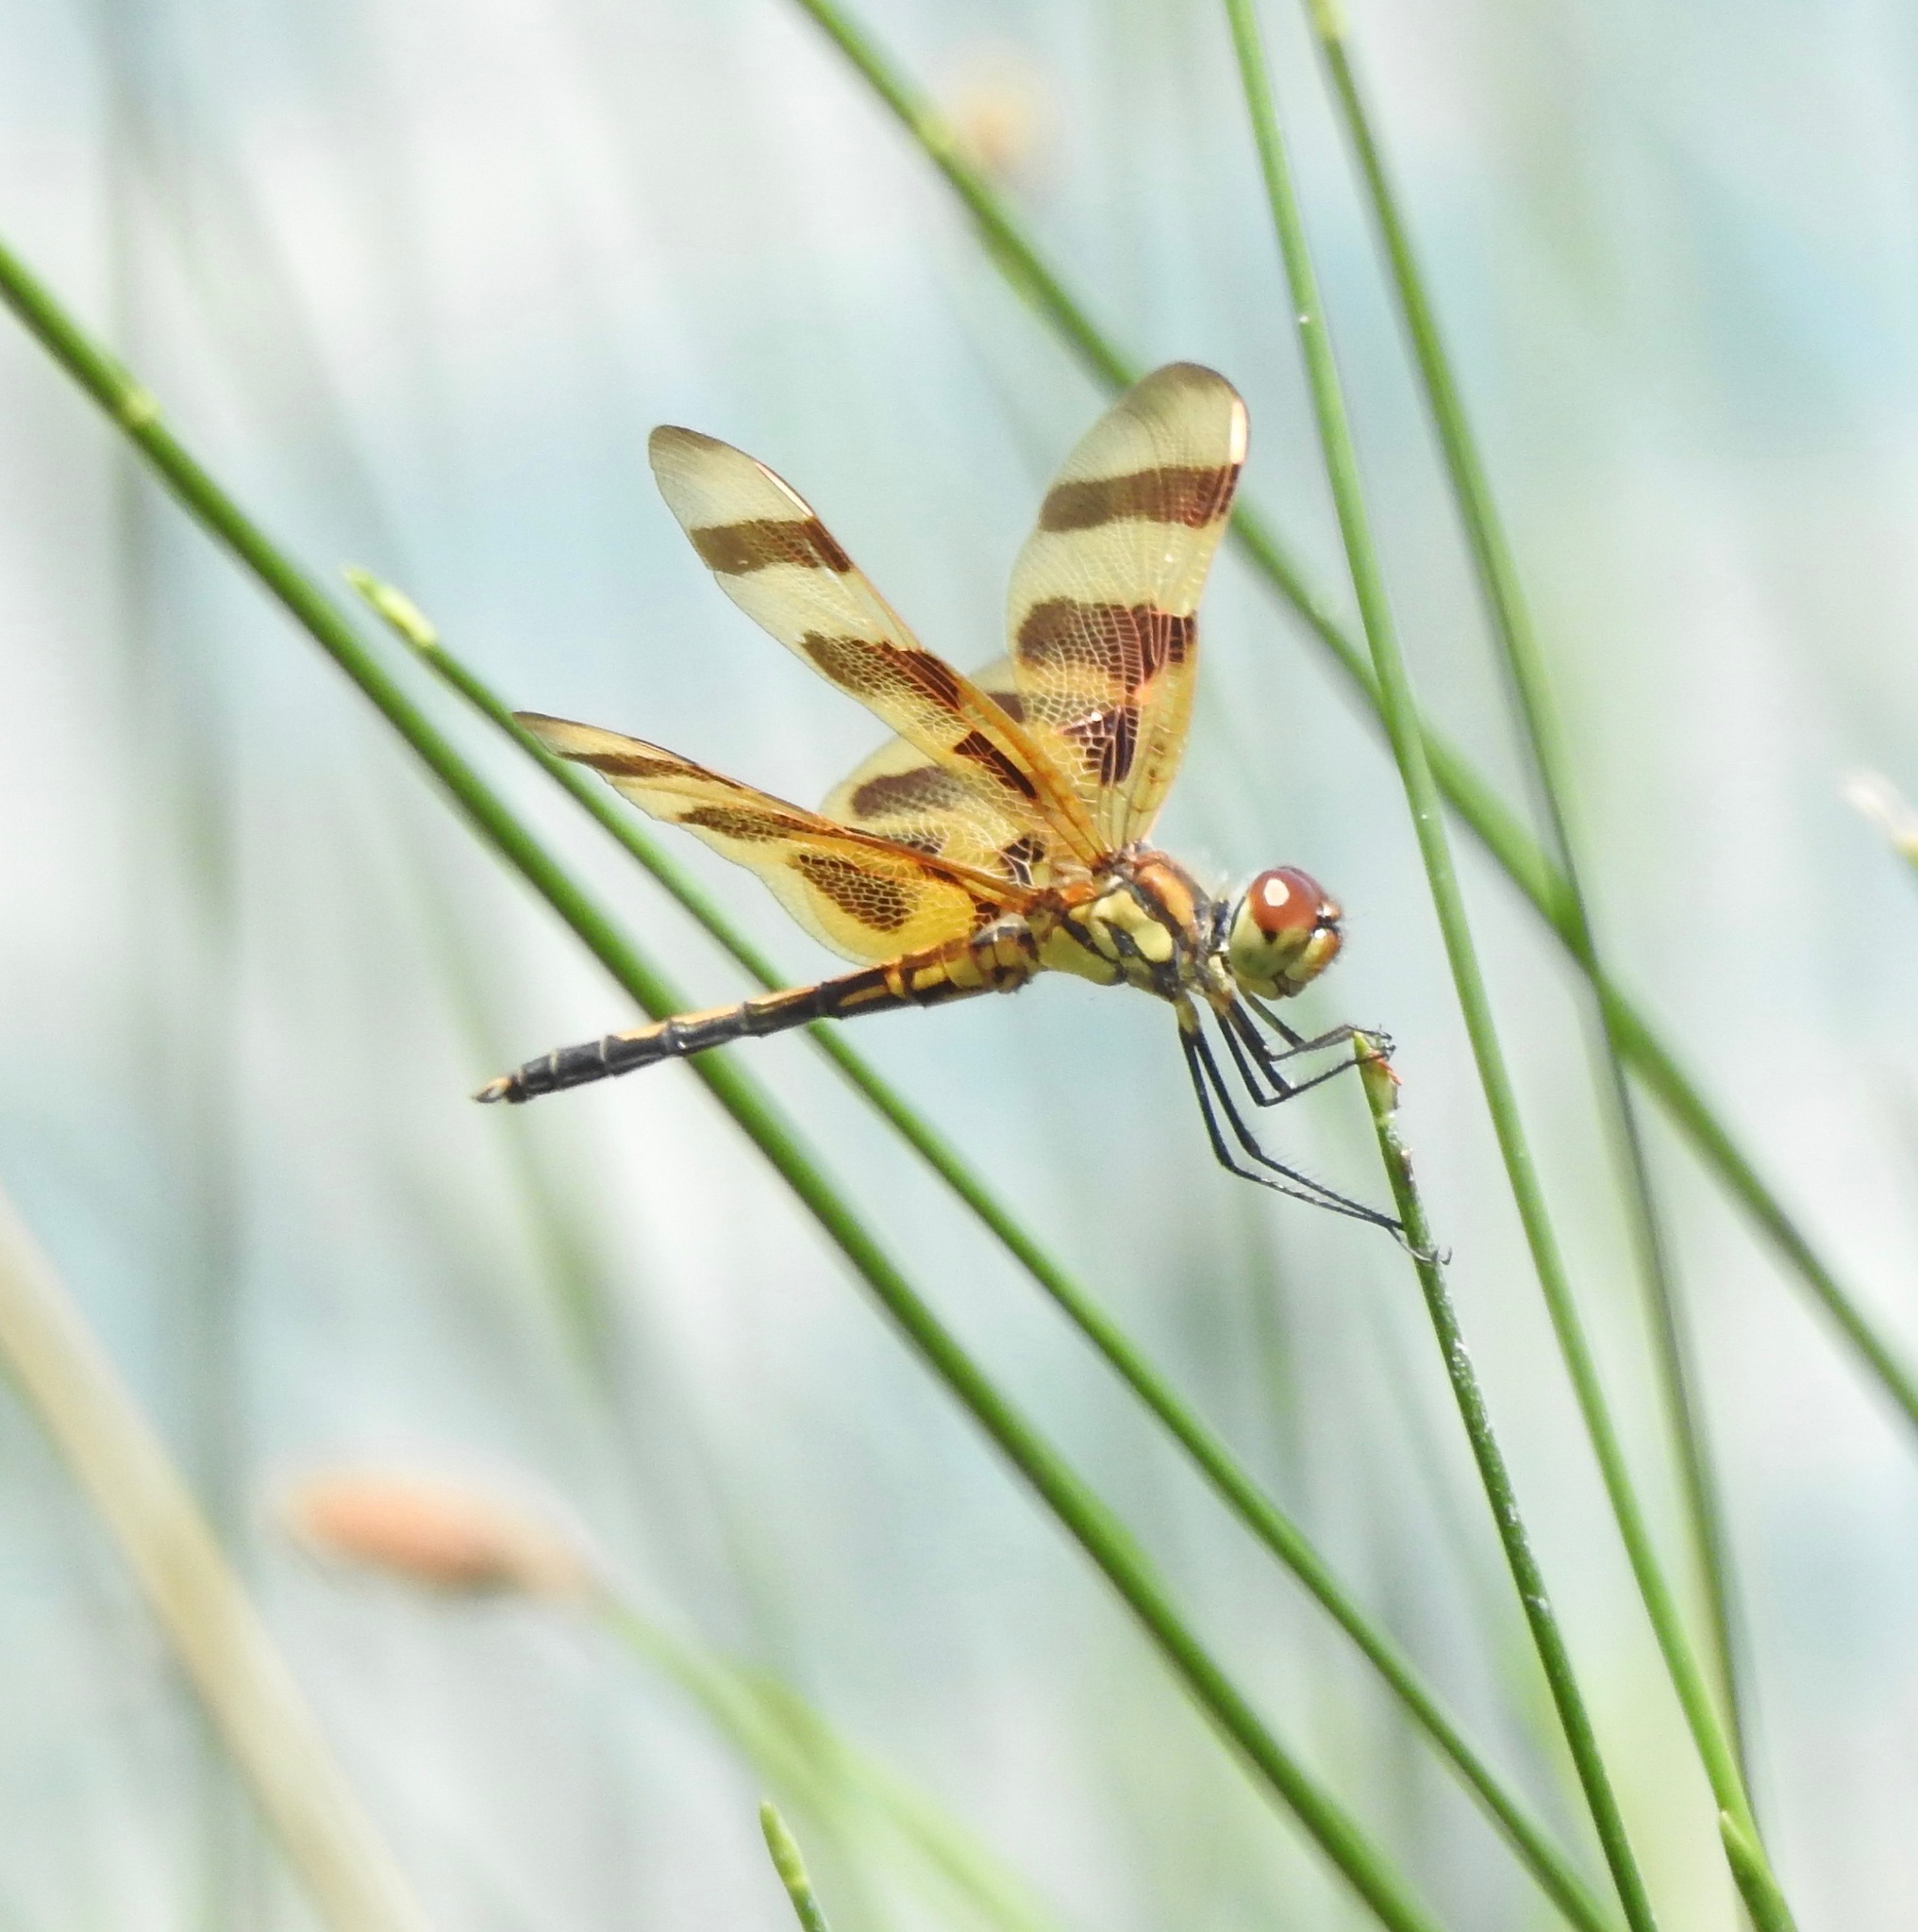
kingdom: Animalia
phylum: Arthropoda
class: Insecta
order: Odonata
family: Libellulidae
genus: Celithemis
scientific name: Celithemis eponina
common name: Halloween pennant
